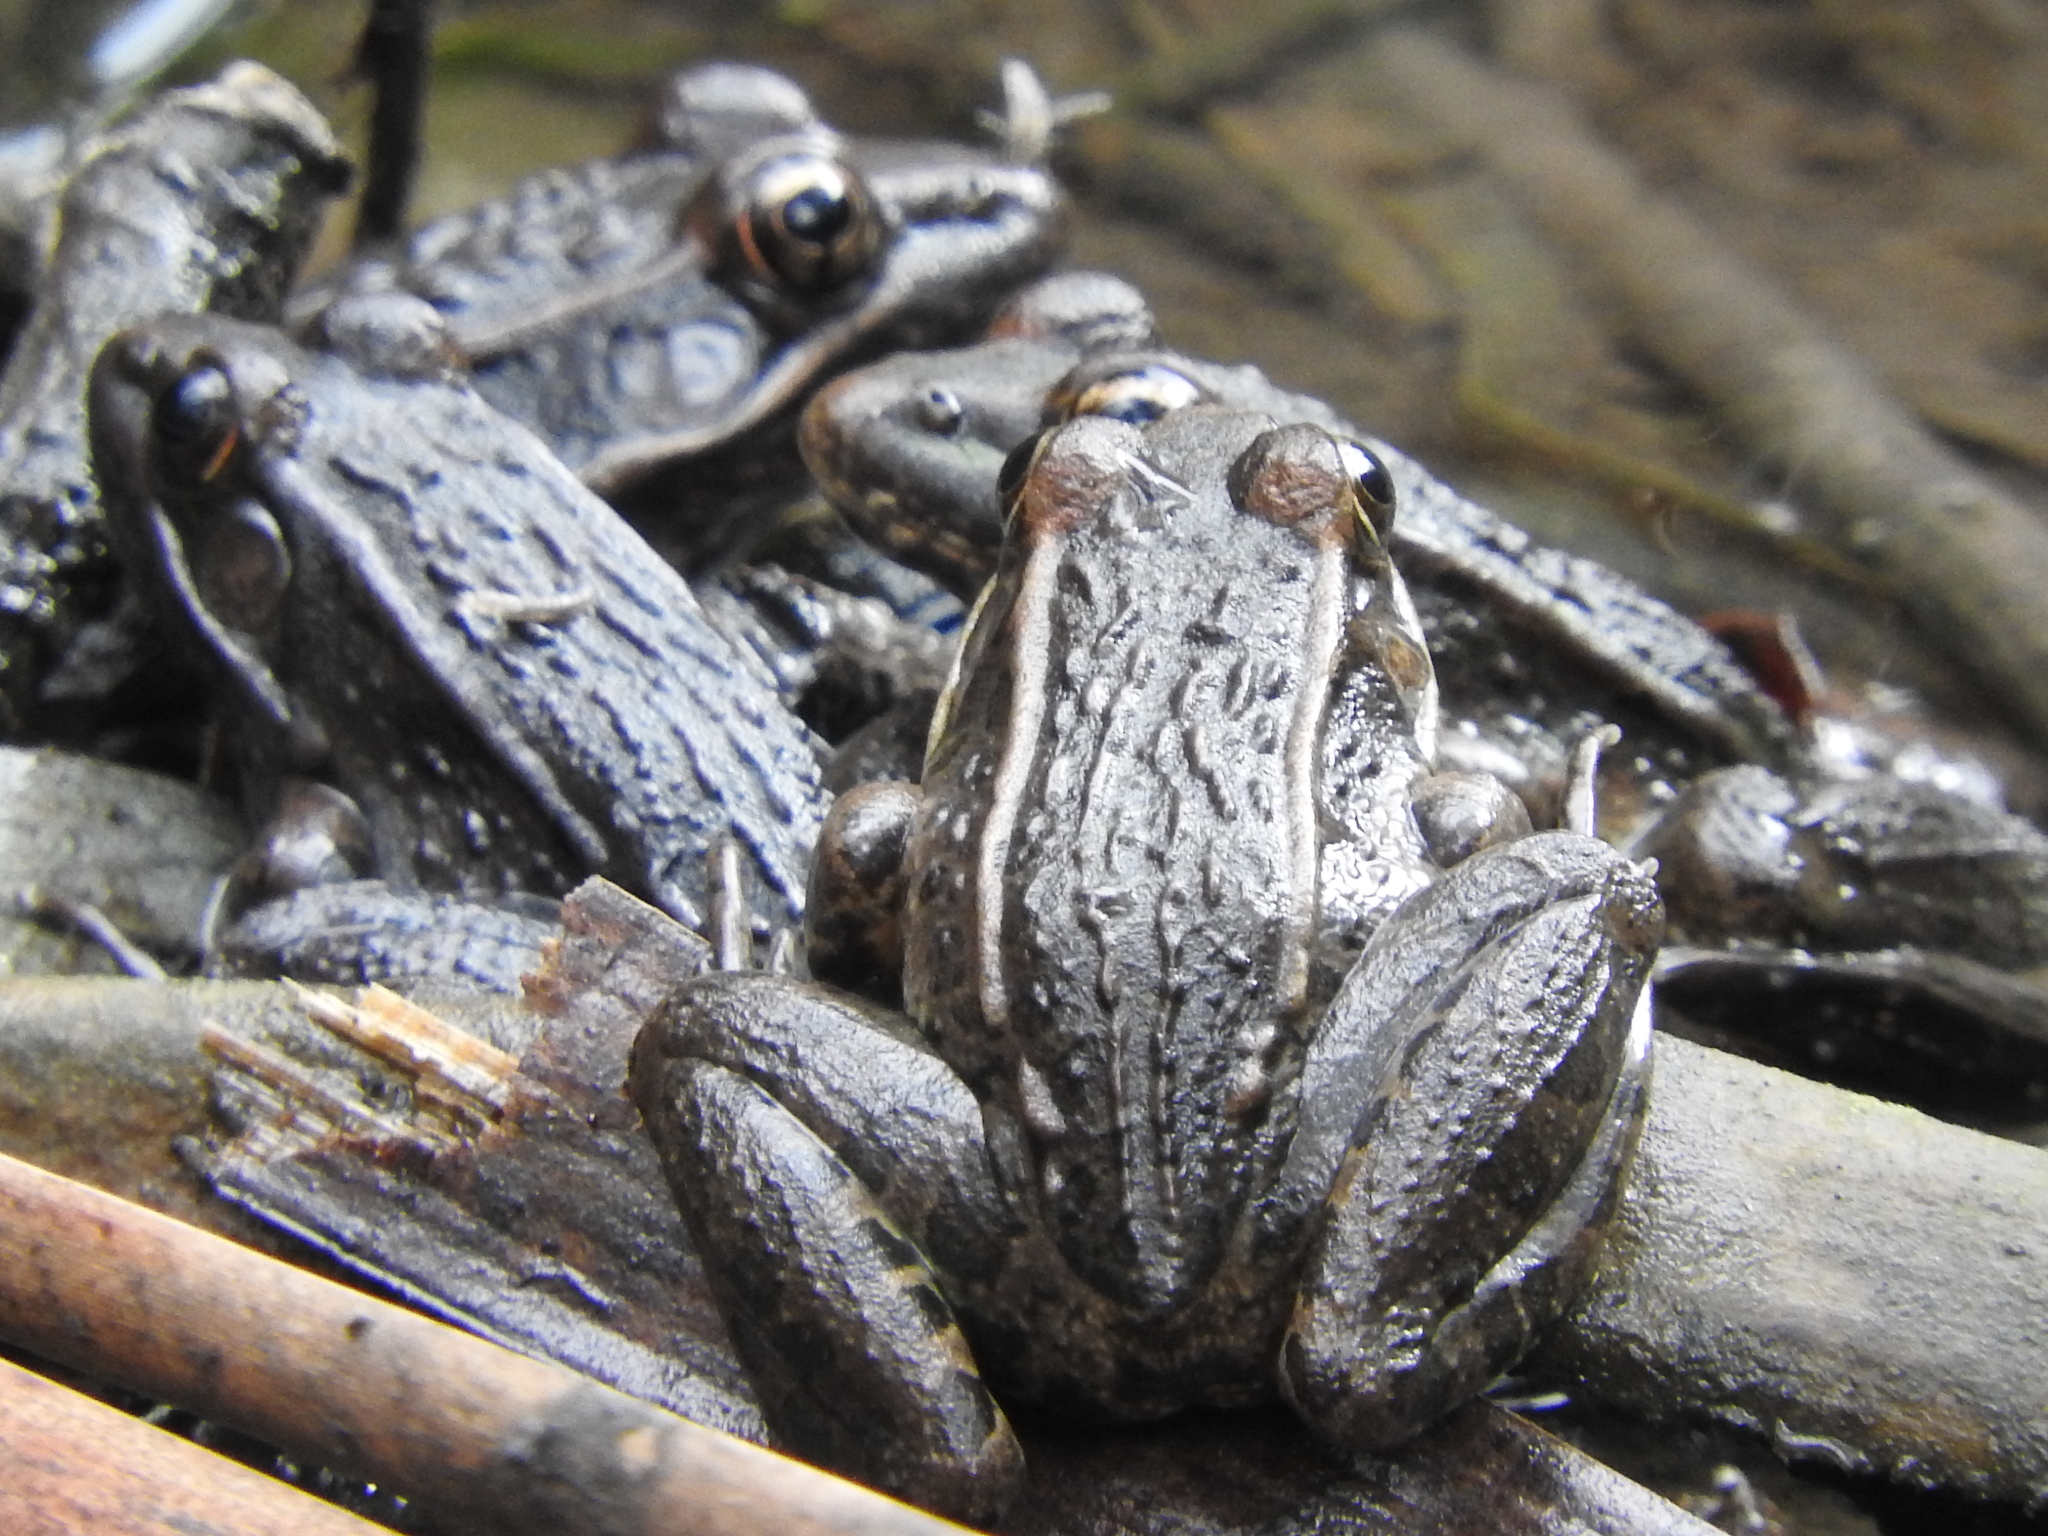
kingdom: Animalia
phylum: Chordata
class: Amphibia
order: Anura
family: Ranidae
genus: Lithobates
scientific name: Lithobates neovolcanicus
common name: Transverse volcanic leopard frog
